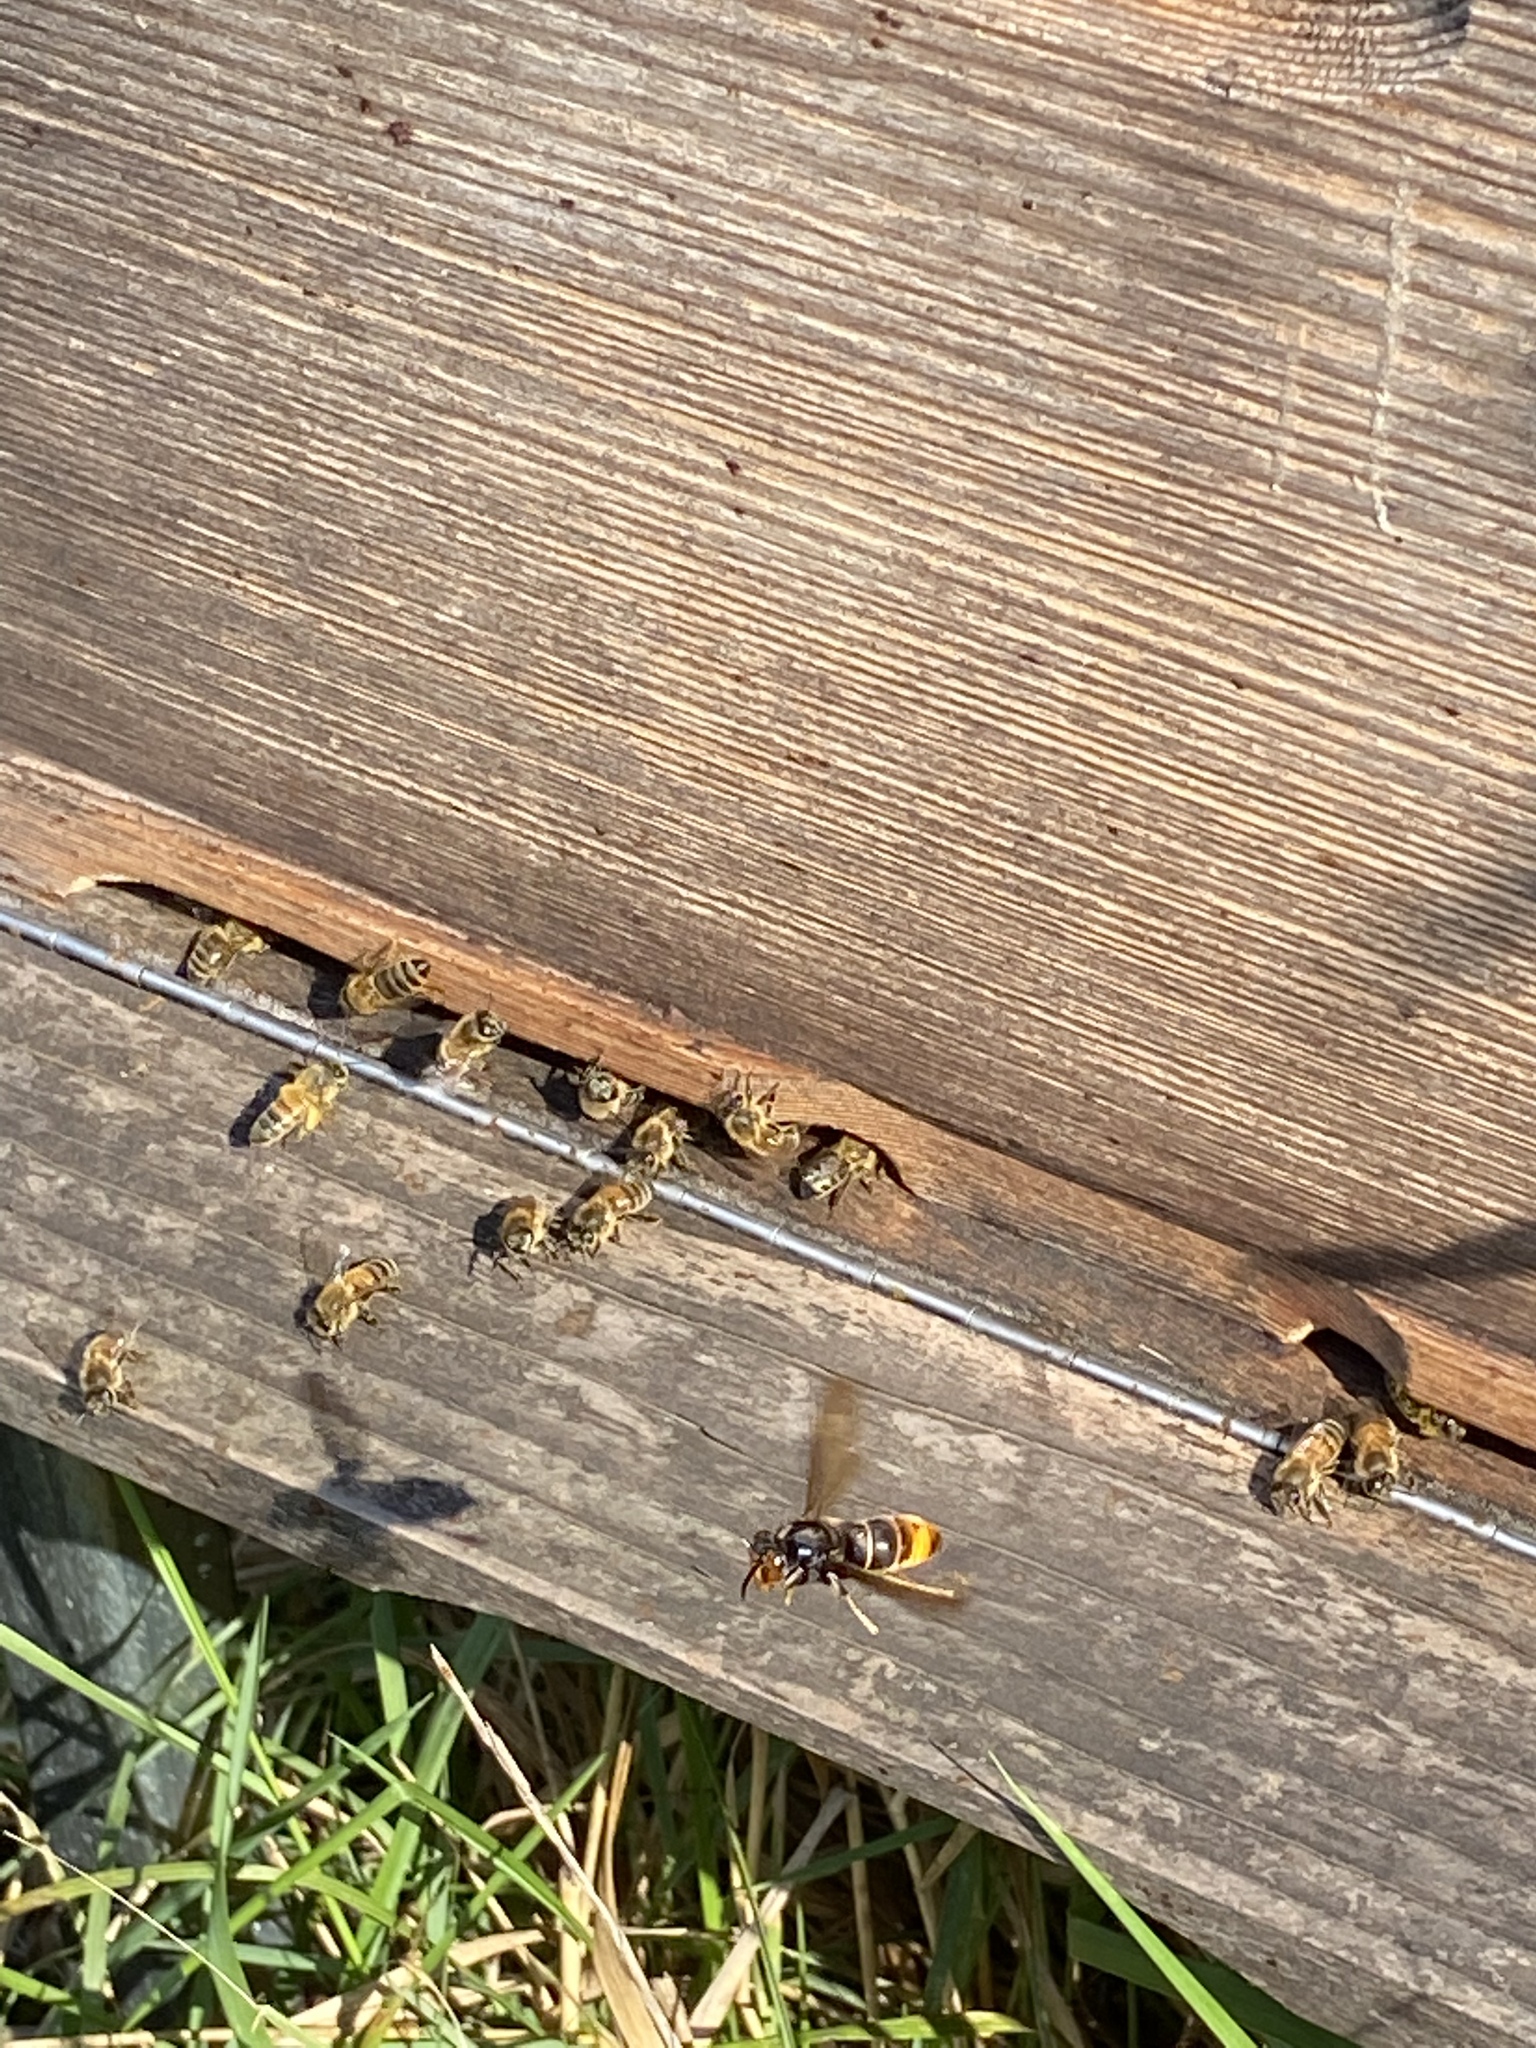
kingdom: Animalia
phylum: Arthropoda
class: Insecta
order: Hymenoptera
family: Vespidae
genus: Vespa
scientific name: Vespa velutina
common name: Asian hornet
